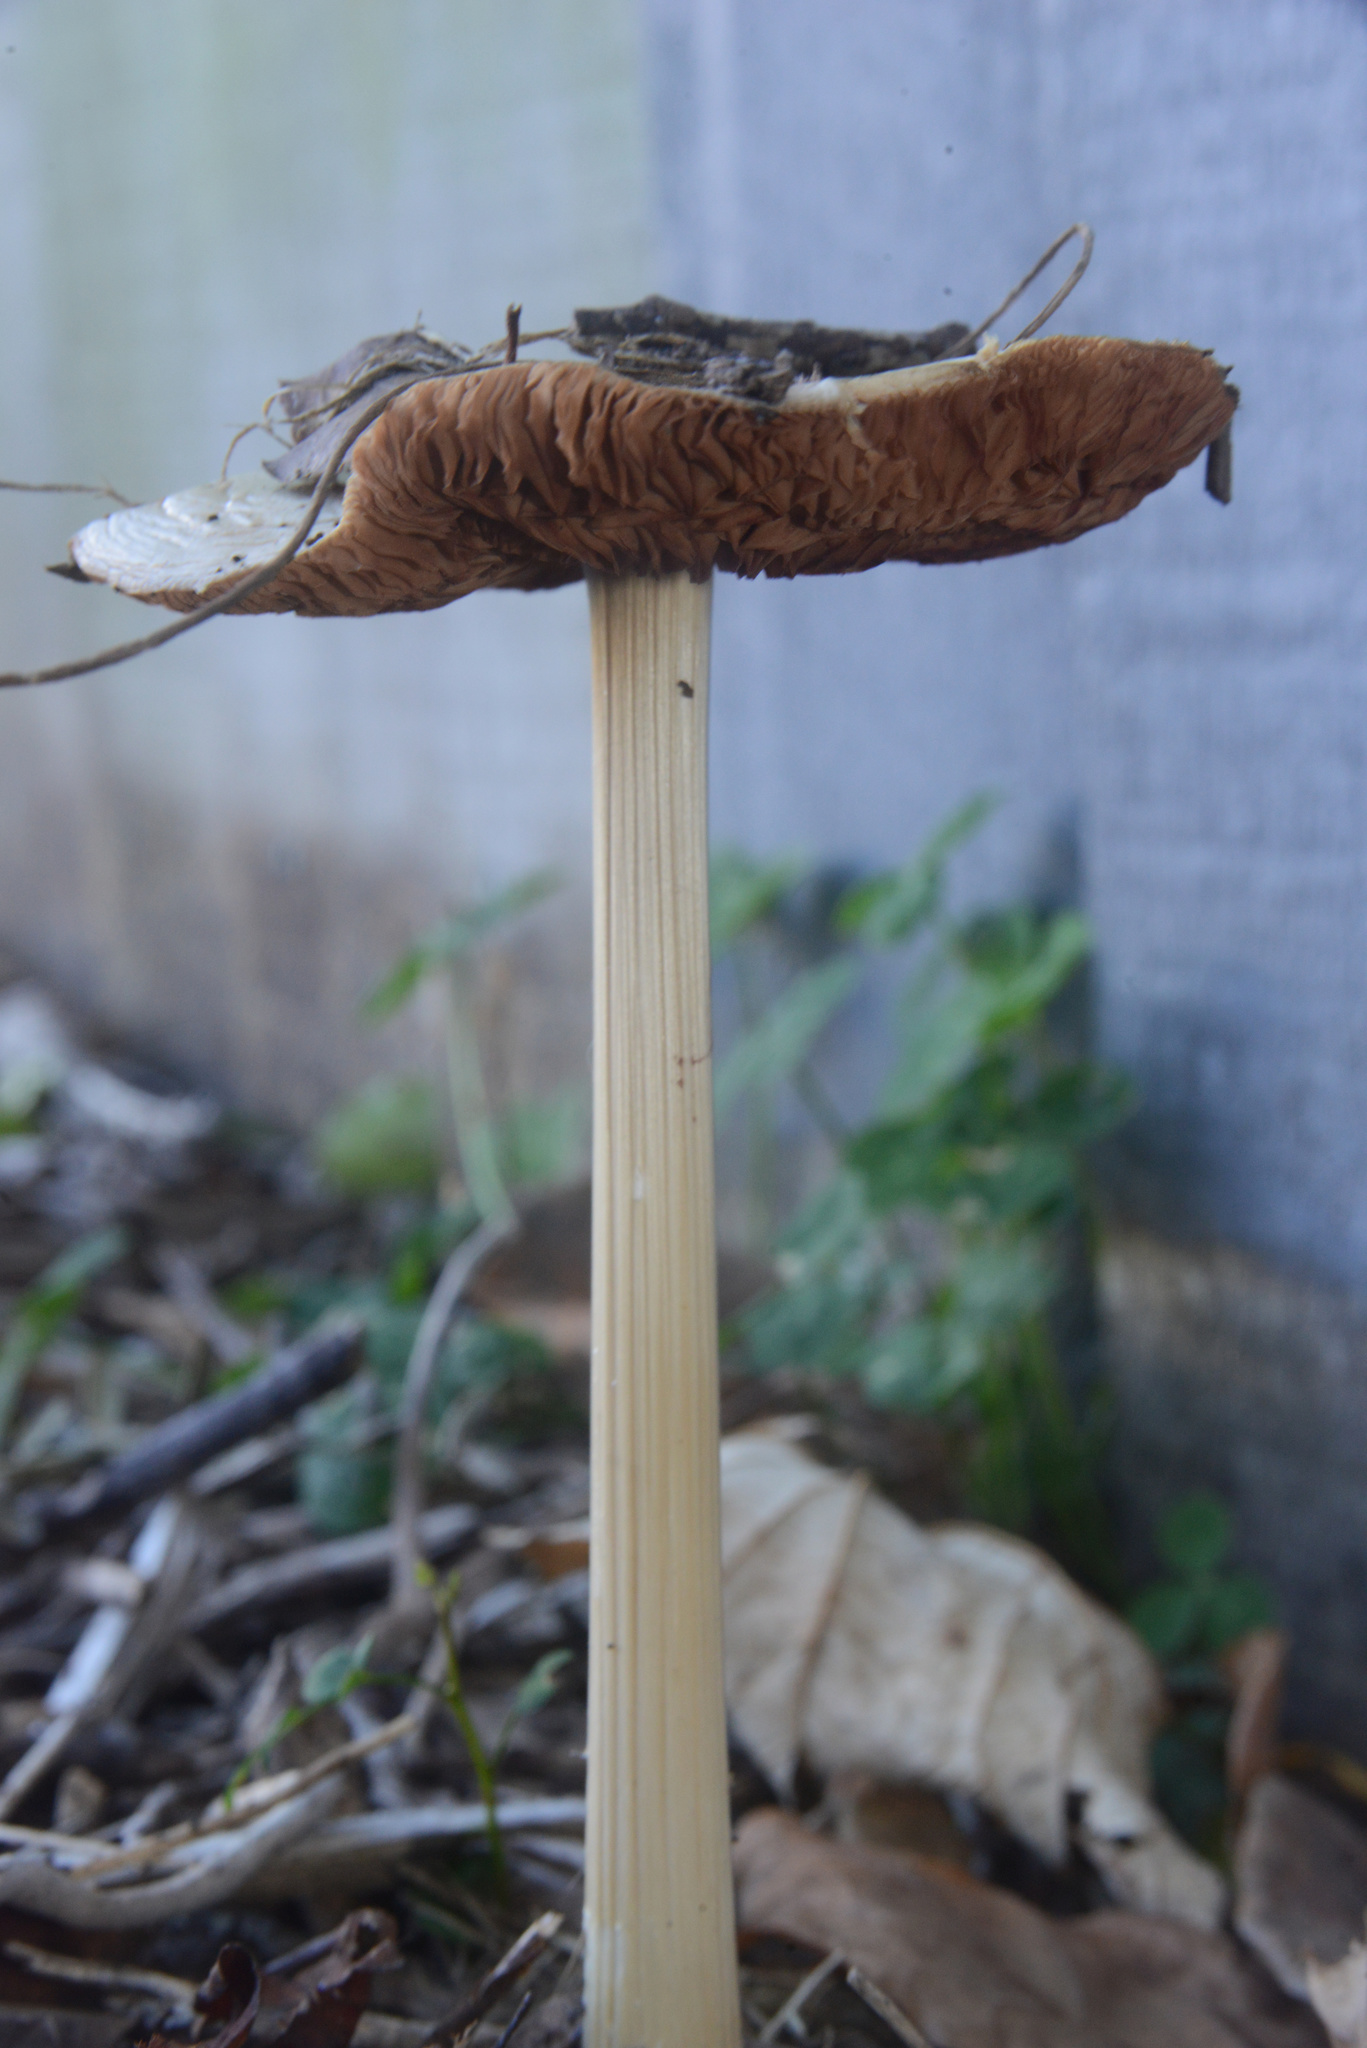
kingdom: Fungi
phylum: Basidiomycota
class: Agaricomycetes
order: Agaricales
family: Pluteaceae
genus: Volvopluteus
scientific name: Volvopluteus gloiocephalus
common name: Stubble rosegill
